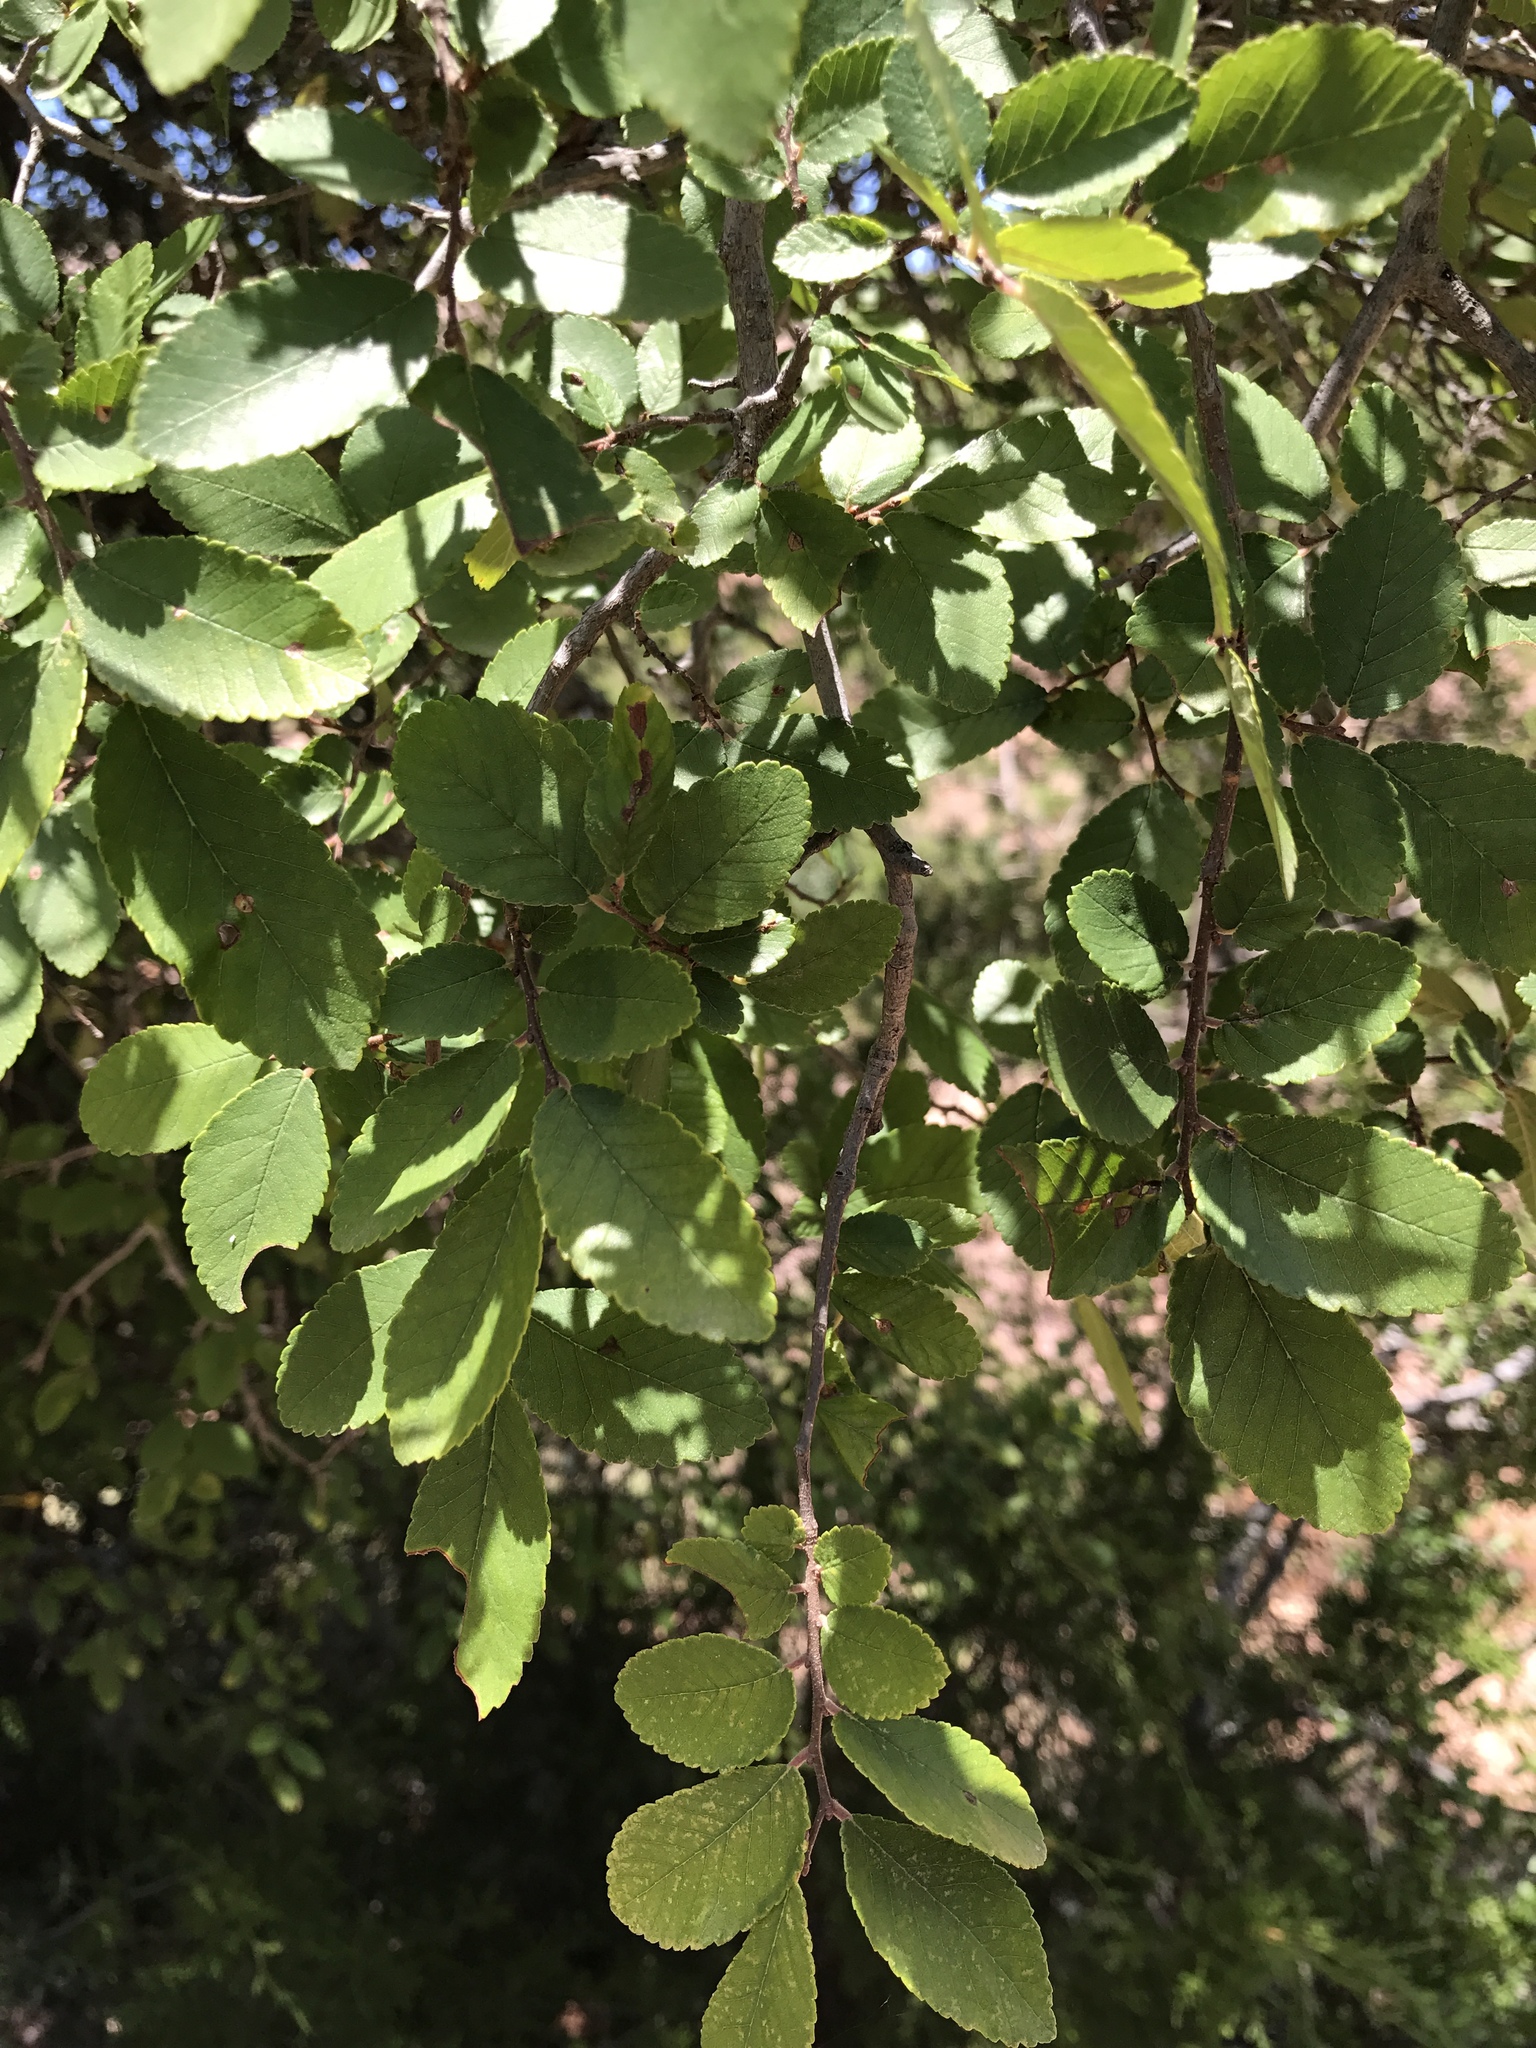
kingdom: Plantae
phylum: Tracheophyta
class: Magnoliopsida
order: Rosales
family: Ulmaceae
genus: Ulmus
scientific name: Ulmus crassifolia
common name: Basket elm
